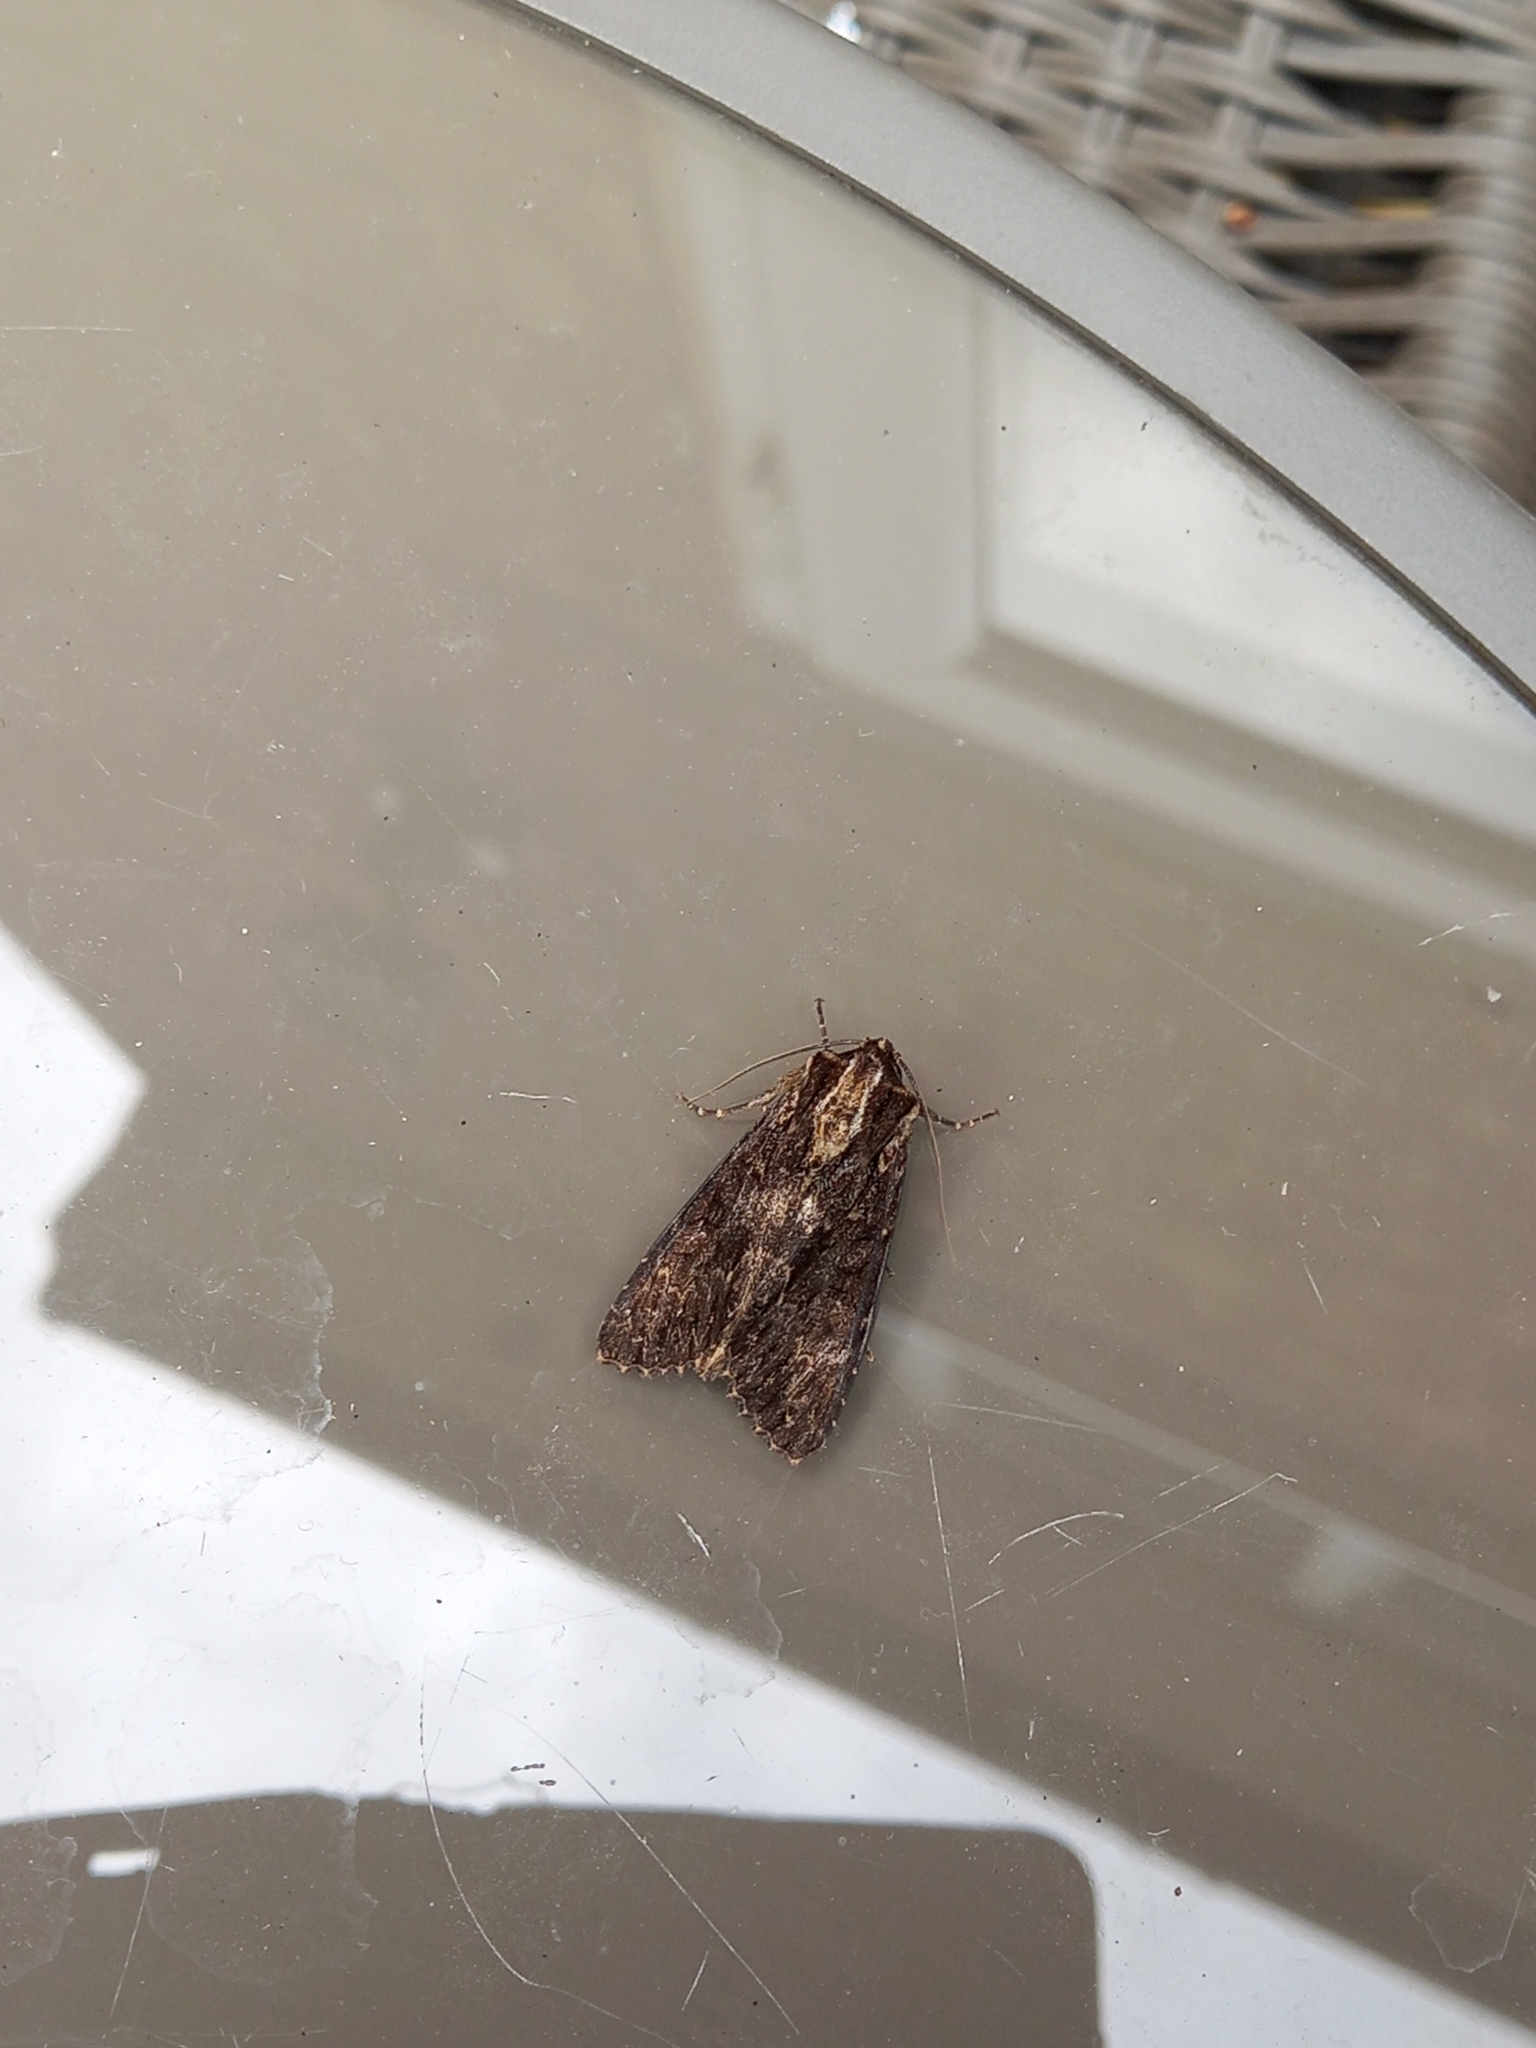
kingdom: Animalia
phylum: Arthropoda
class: Insecta
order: Lepidoptera
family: Noctuidae
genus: Apamea
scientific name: Apamea monoglypha
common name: Dark arches
